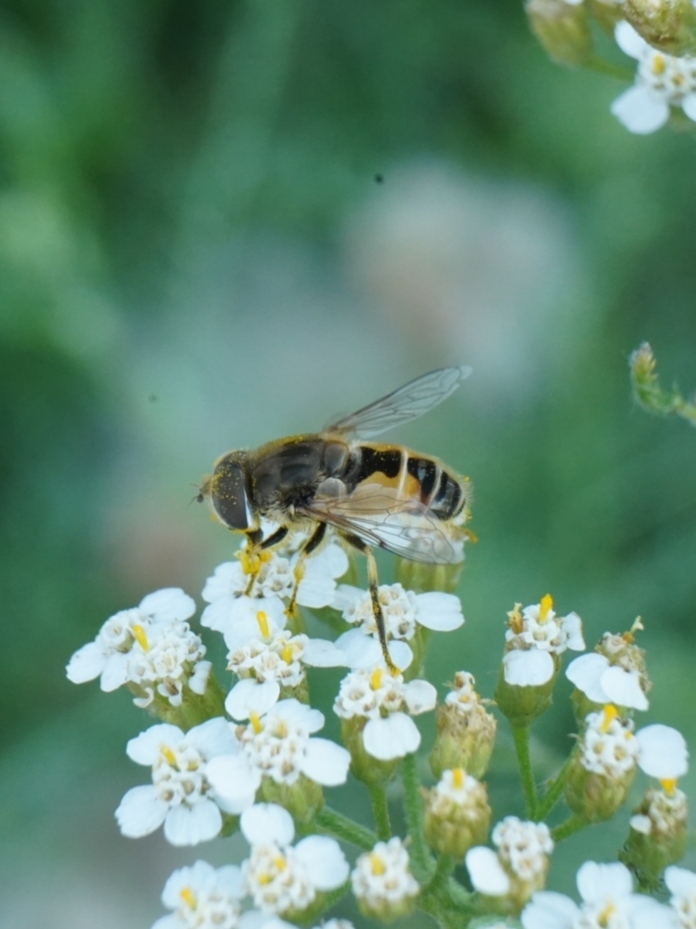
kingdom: Animalia
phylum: Arthropoda
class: Insecta
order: Diptera
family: Syrphidae
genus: Eristalis
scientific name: Eristalis arbustorum
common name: Hover fly
